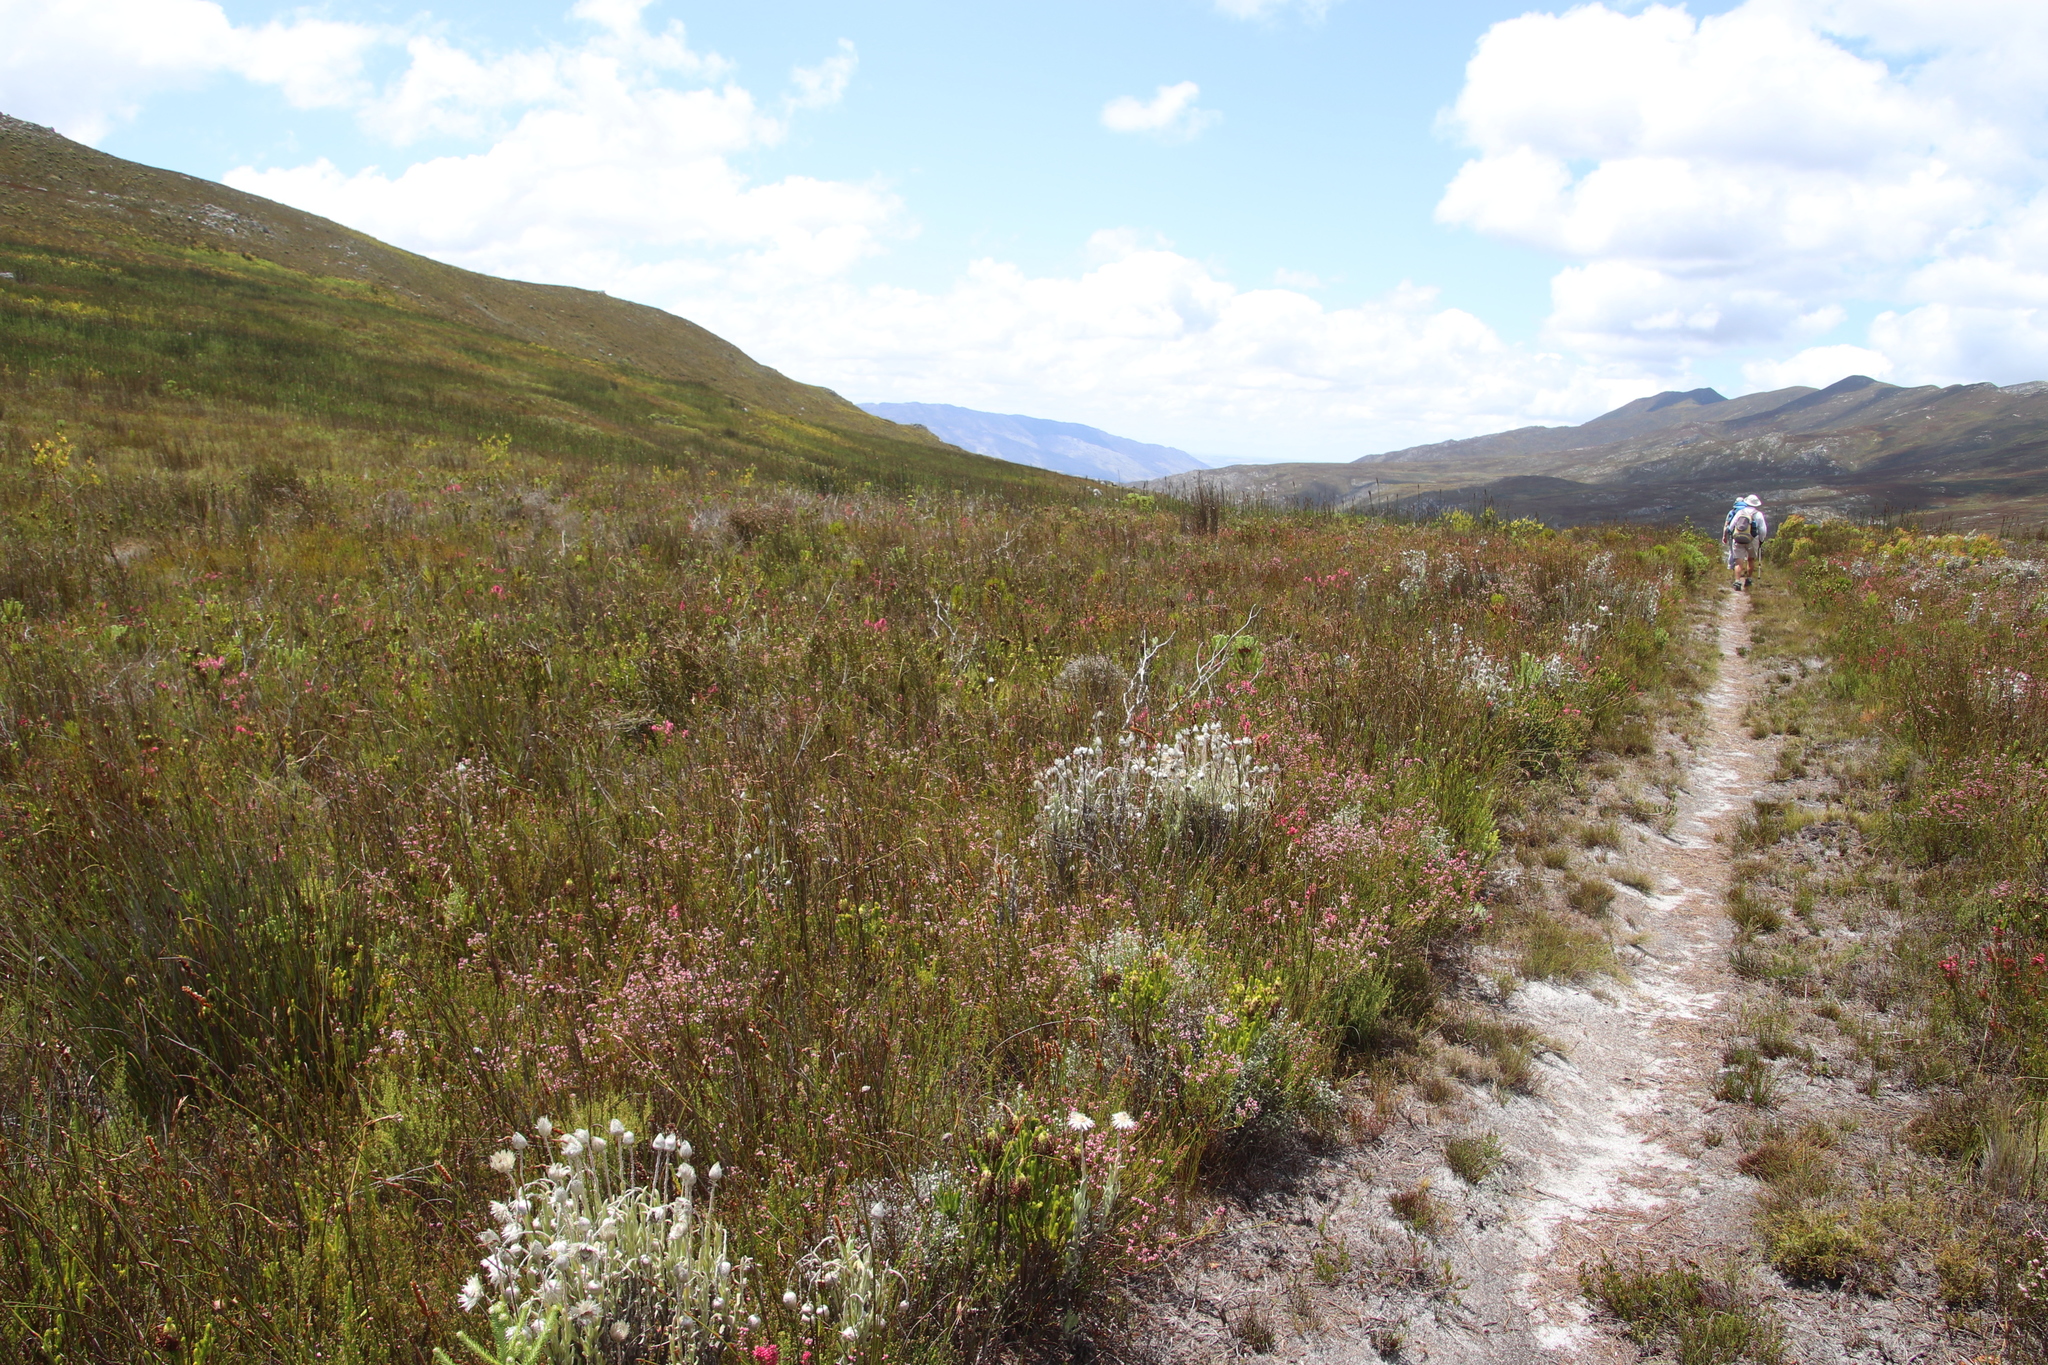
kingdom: Plantae
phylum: Tracheophyta
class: Magnoliopsida
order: Asterales
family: Asteraceae
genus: Syncarpha
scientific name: Syncarpha vestita
